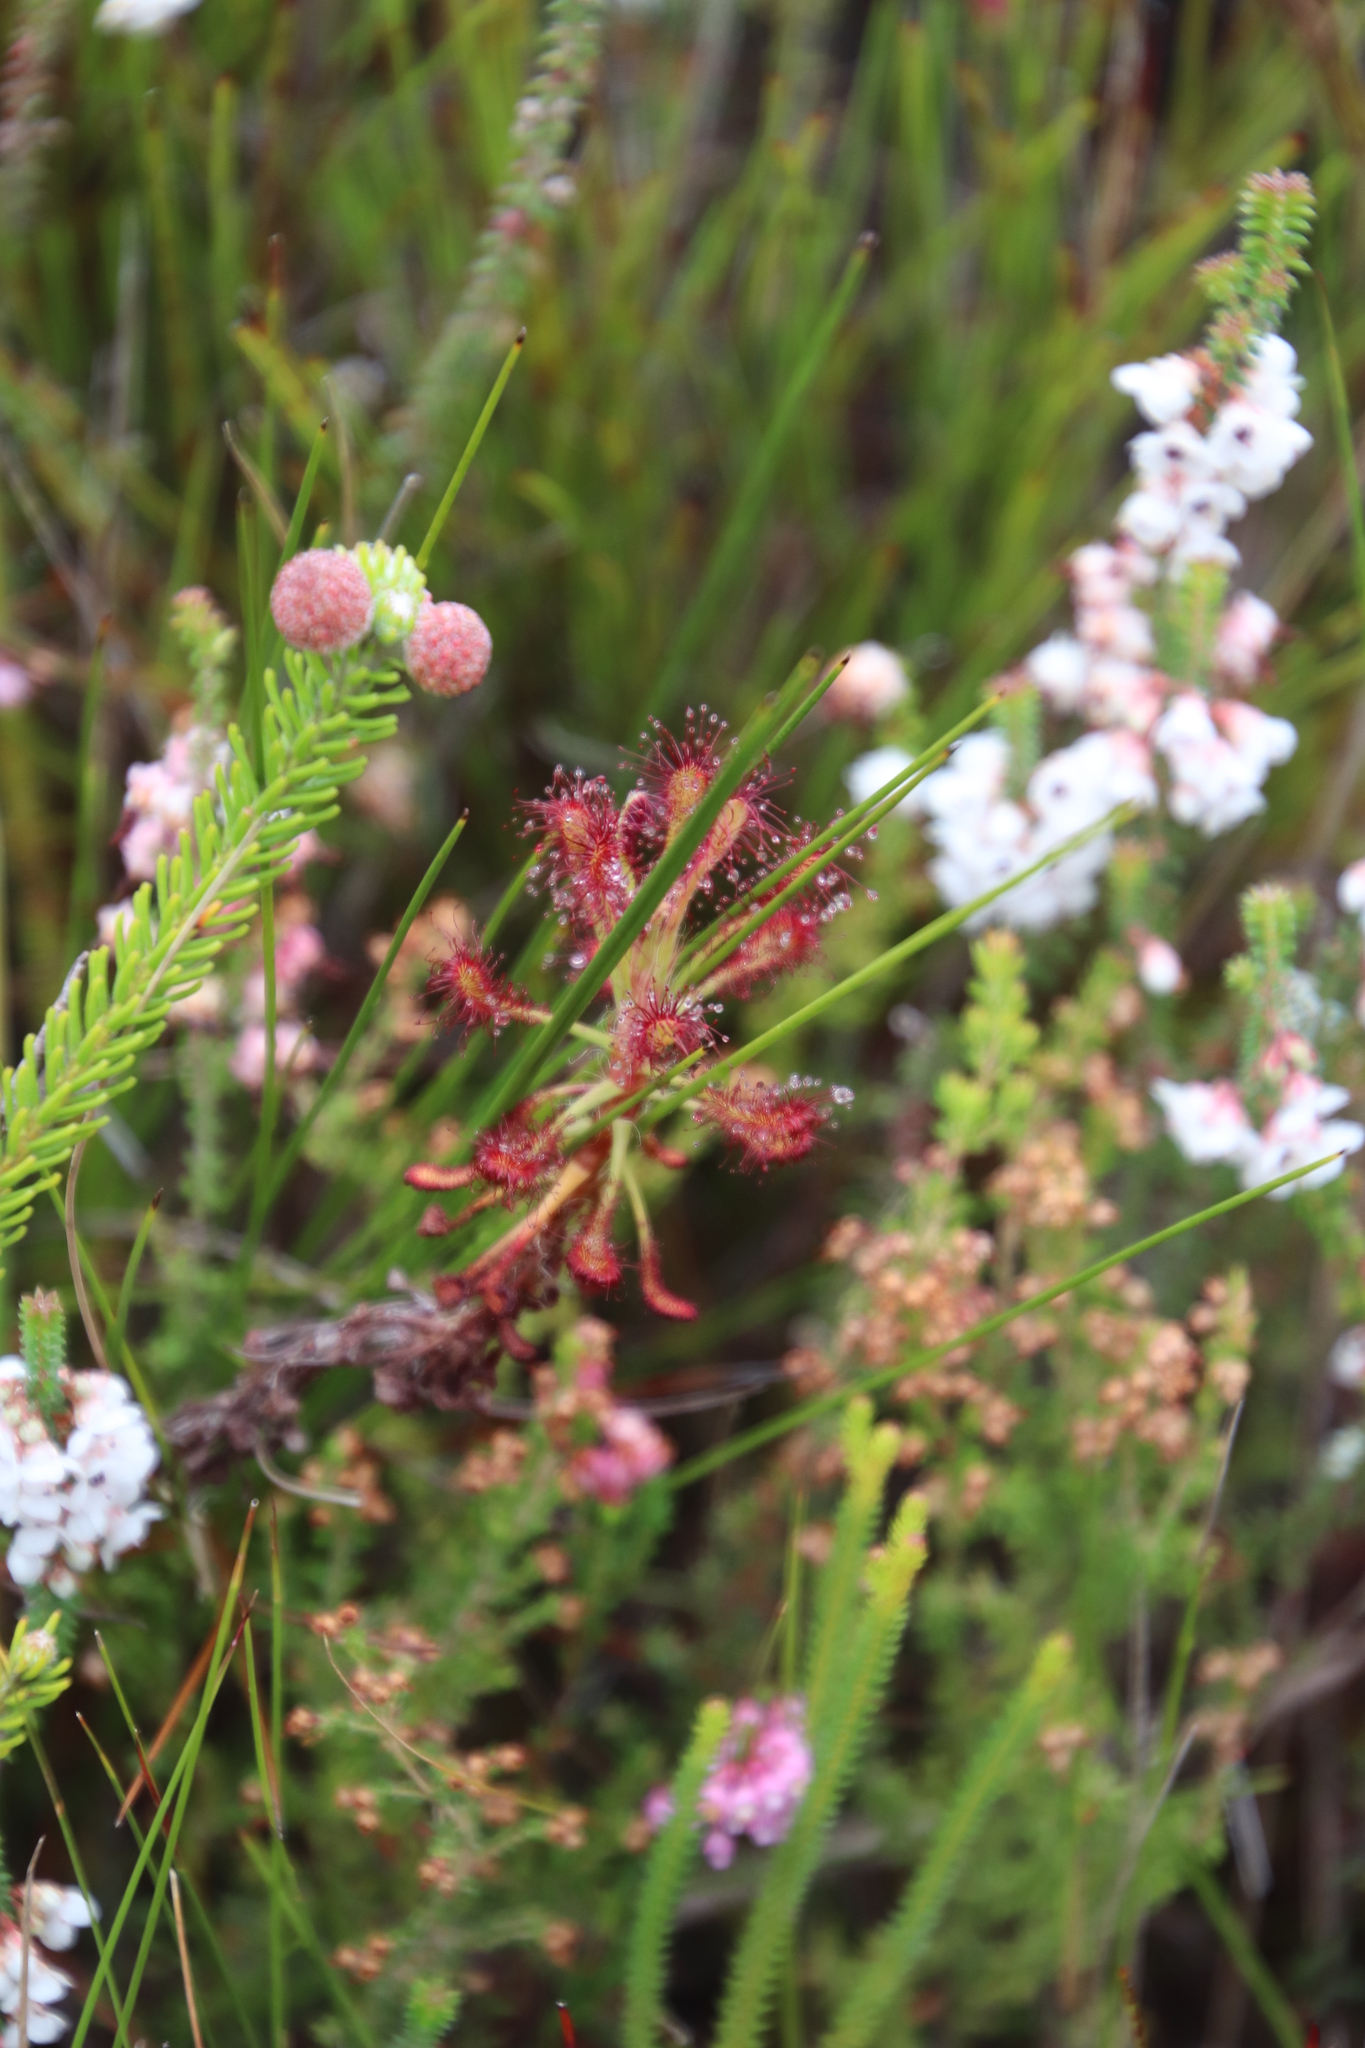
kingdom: Plantae
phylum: Tracheophyta
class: Magnoliopsida
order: Caryophyllales
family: Droseraceae
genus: Drosera
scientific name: Drosera glabripes
